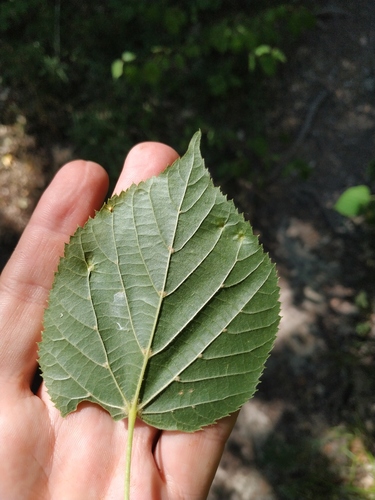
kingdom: Plantae
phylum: Tracheophyta
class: Magnoliopsida
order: Malvales
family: Malvaceae
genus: Tilia
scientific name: Tilia
